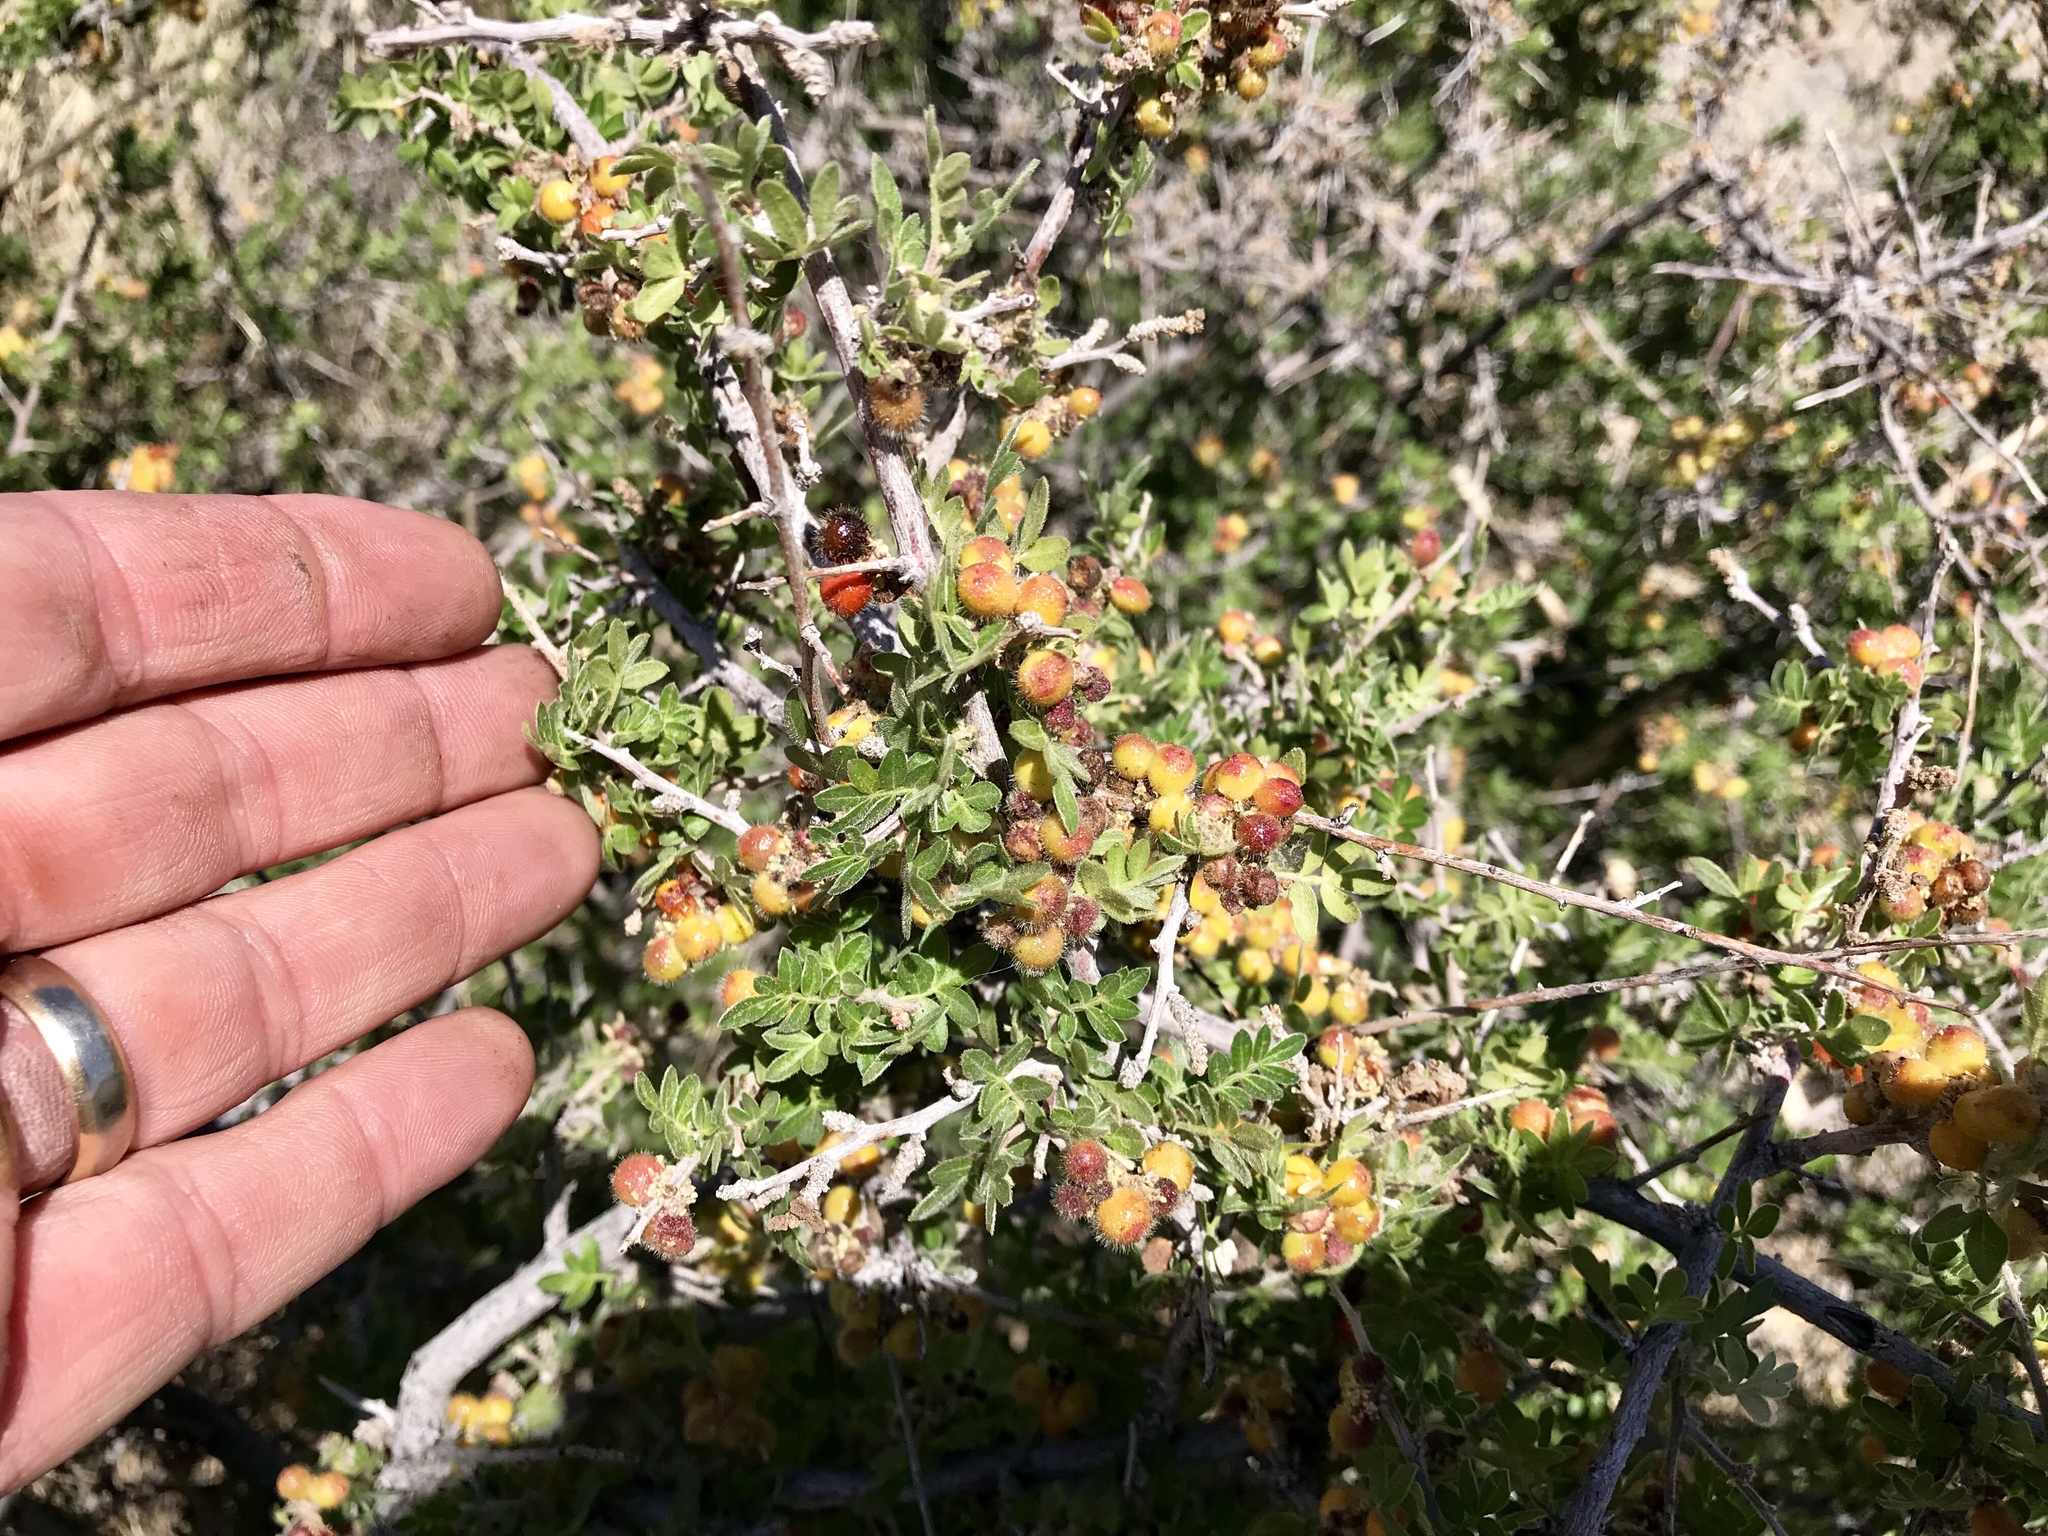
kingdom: Plantae
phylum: Tracheophyta
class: Magnoliopsida
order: Sapindales
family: Anacardiaceae
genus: Rhus
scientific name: Rhus microphylla
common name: Desert sumac
